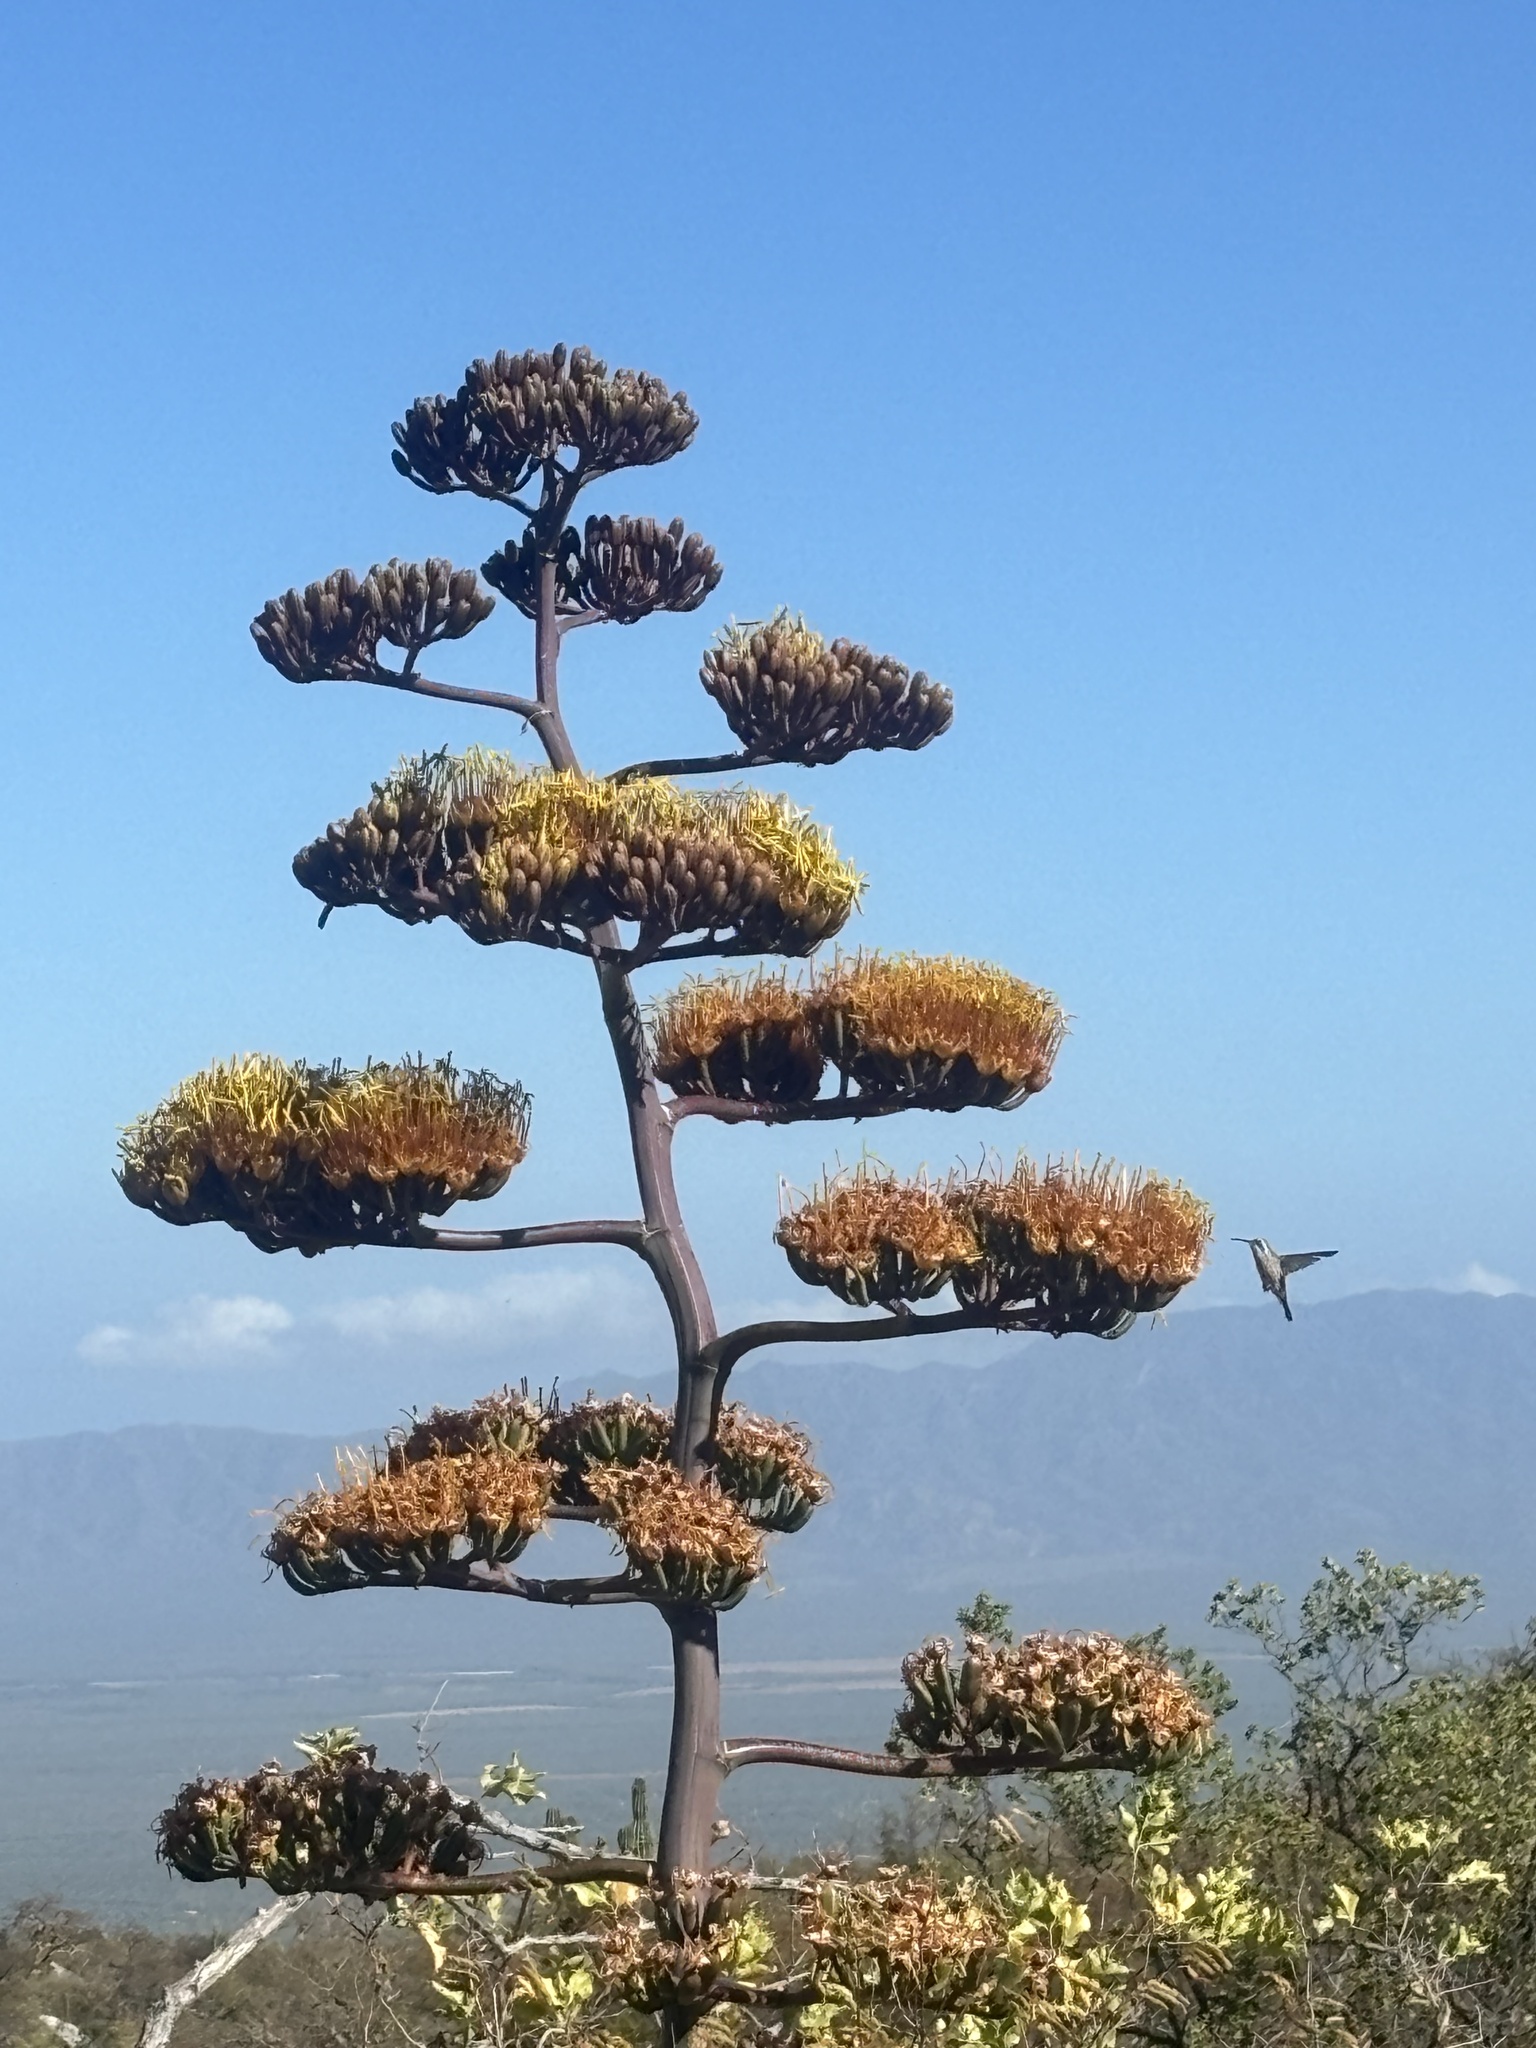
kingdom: Animalia
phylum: Chordata
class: Aves
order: Apodiformes
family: Trochilidae
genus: Basilinna
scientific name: Basilinna xantusii
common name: Xantus's hummingbird
